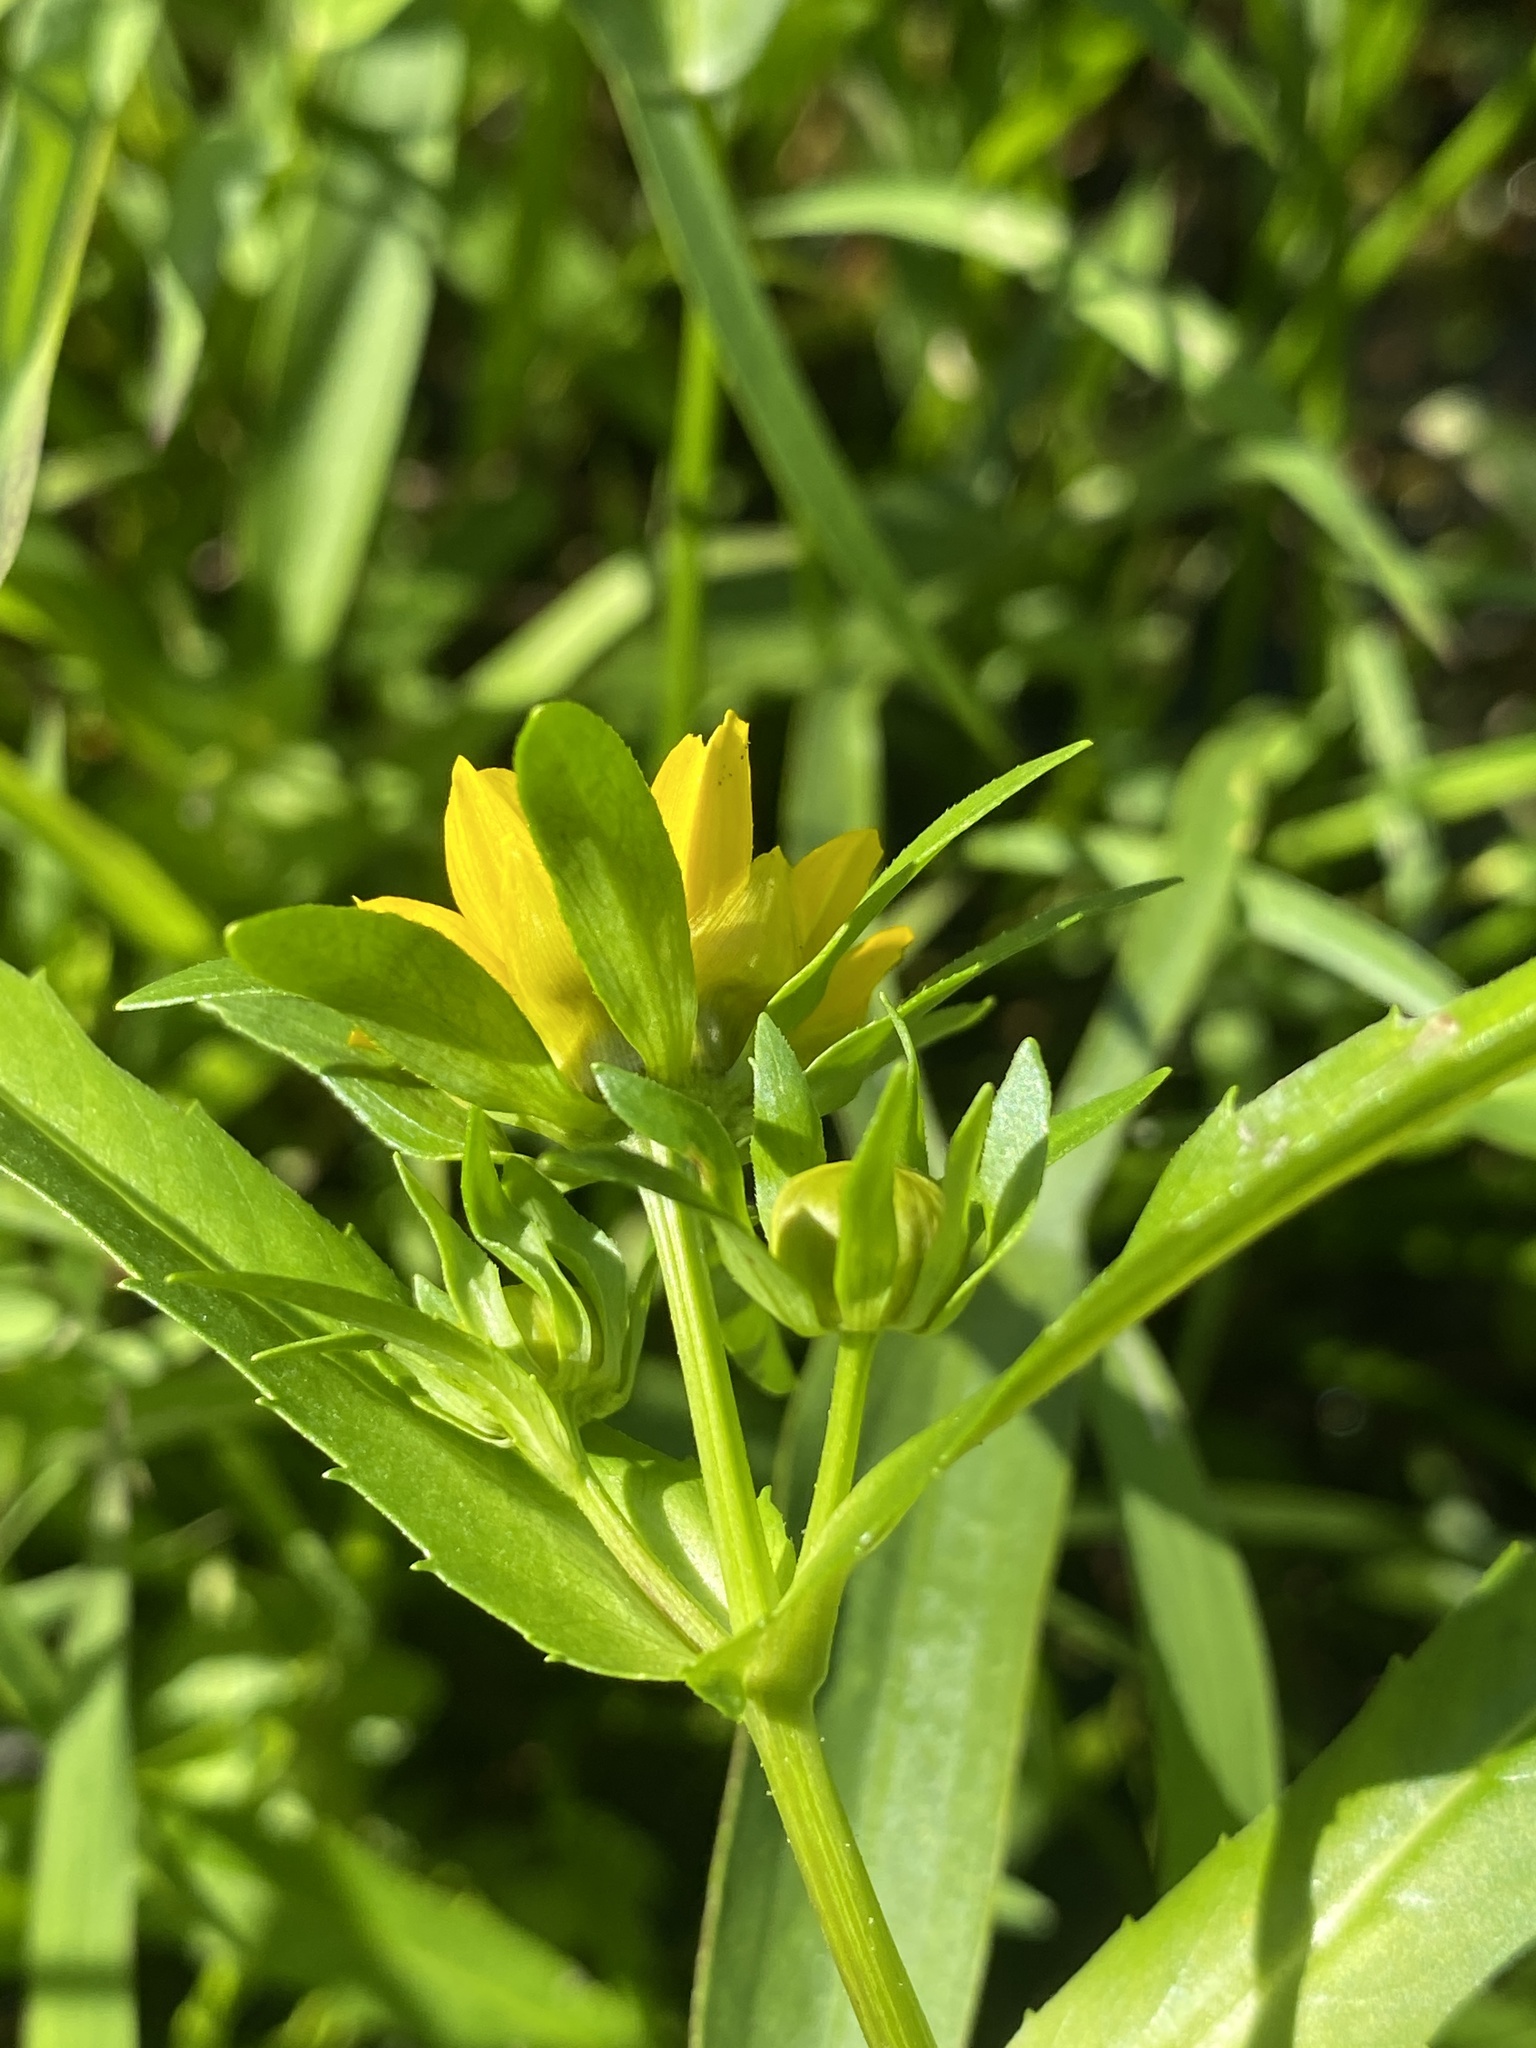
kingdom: Plantae
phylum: Tracheophyta
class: Magnoliopsida
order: Asterales
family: Asteraceae
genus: Bidens
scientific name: Bidens cernua
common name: Nodding bur-marigold
